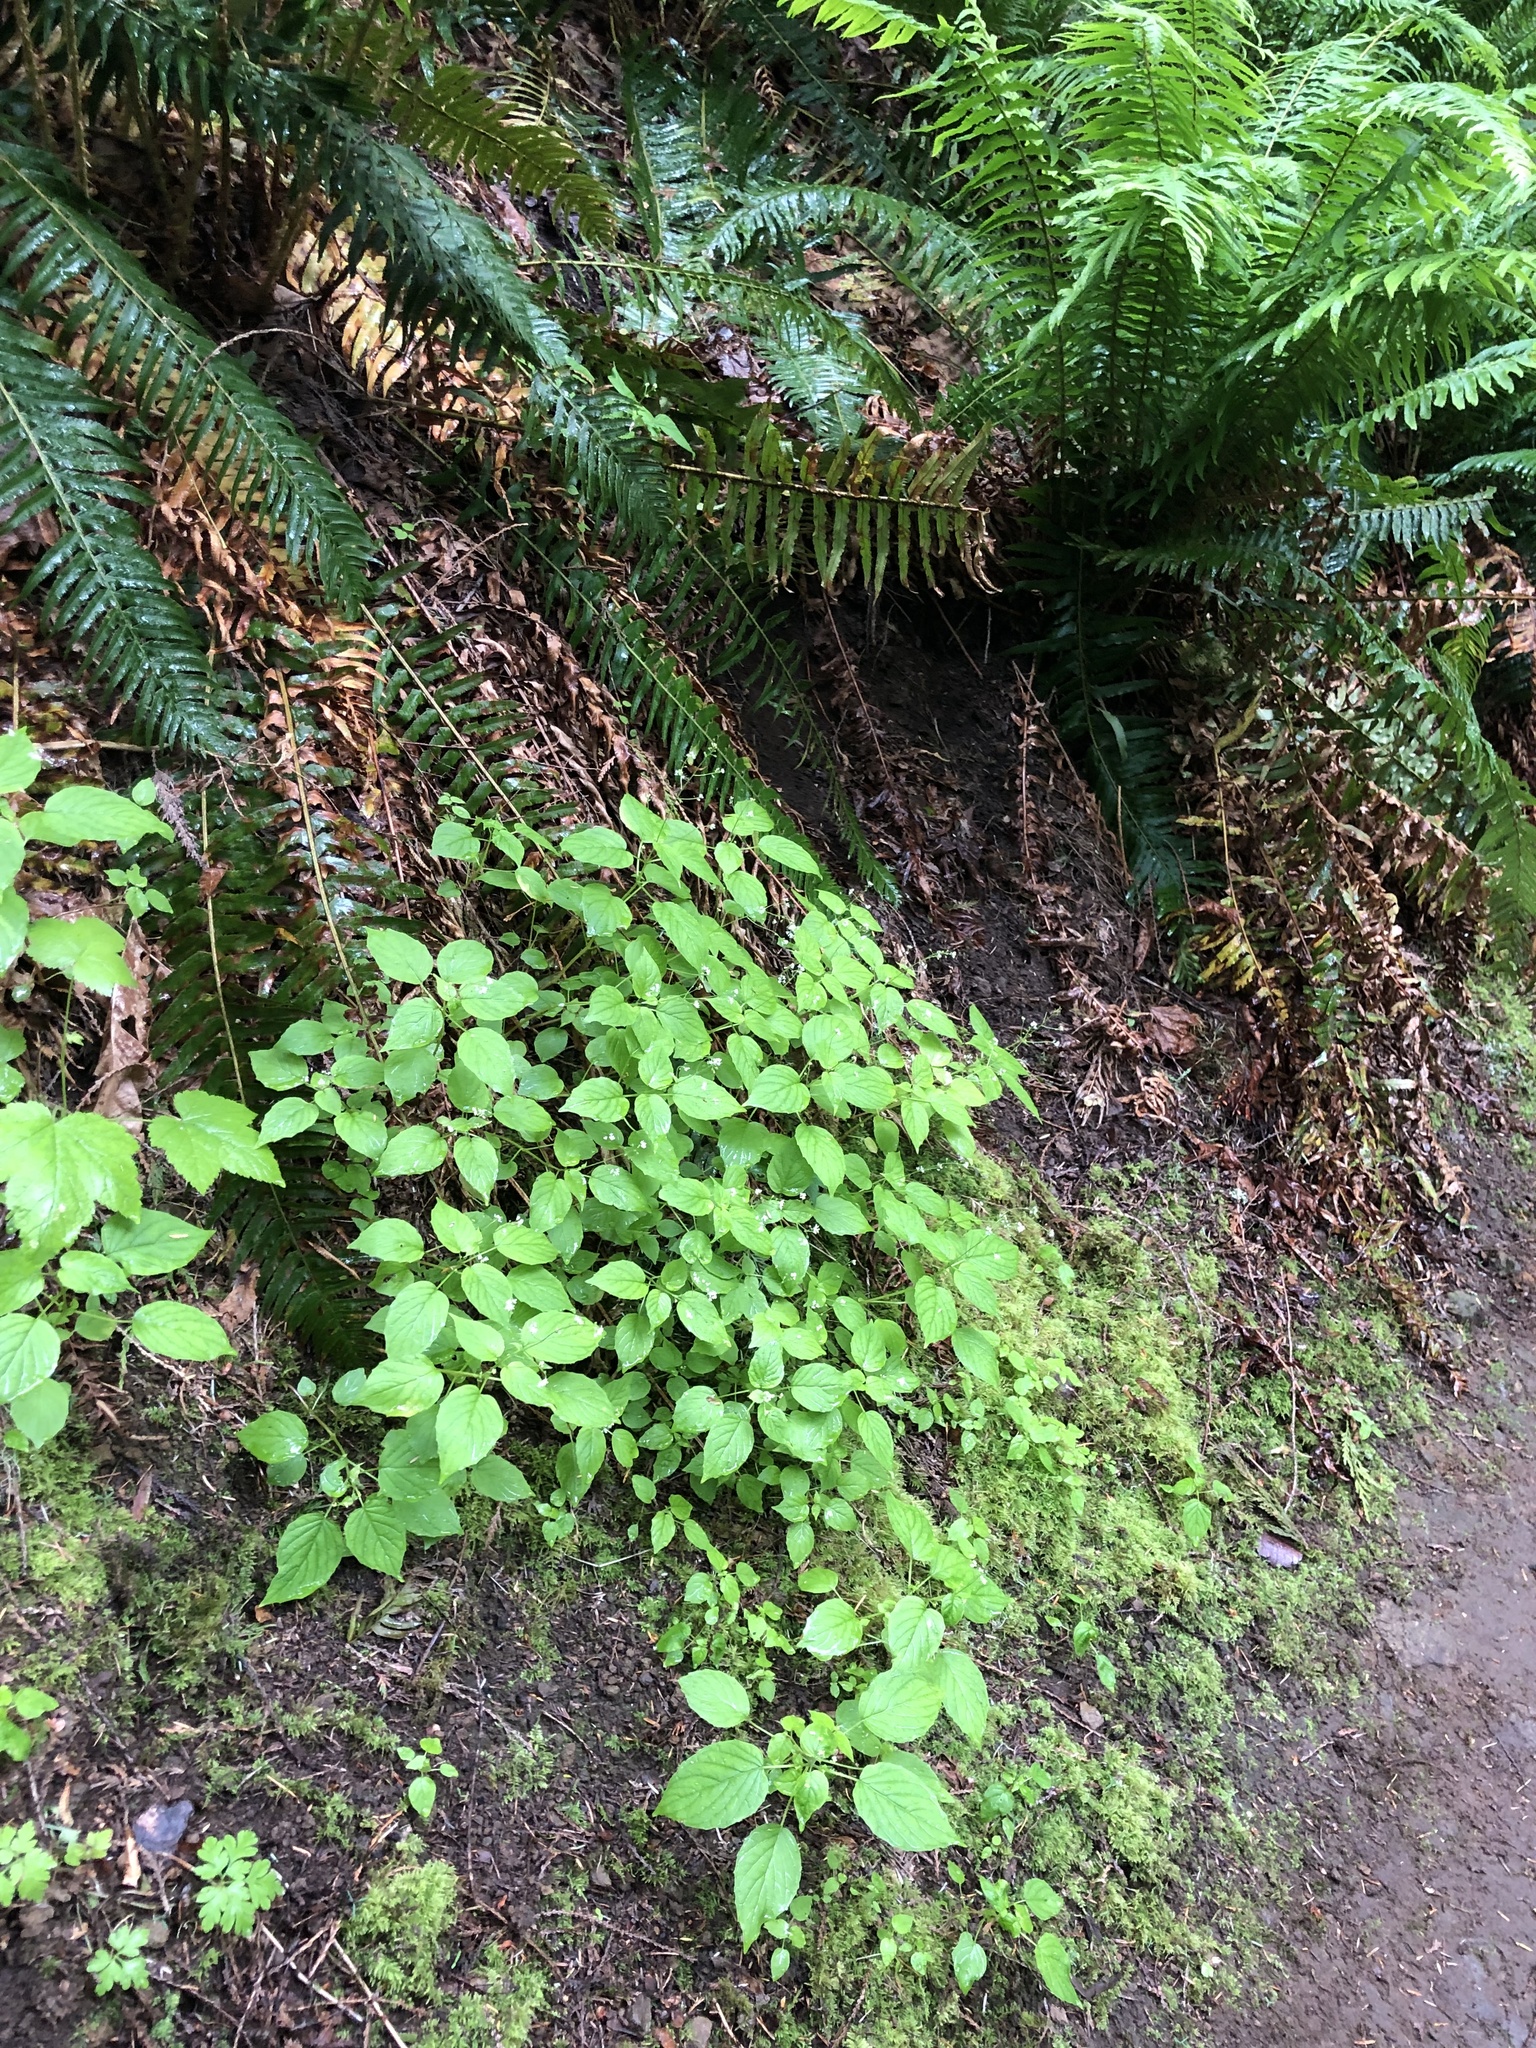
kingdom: Plantae
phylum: Tracheophyta
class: Magnoliopsida
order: Myrtales
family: Onagraceae
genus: Circaea
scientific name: Circaea alpina
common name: Alpine enchanter's-nightshade
